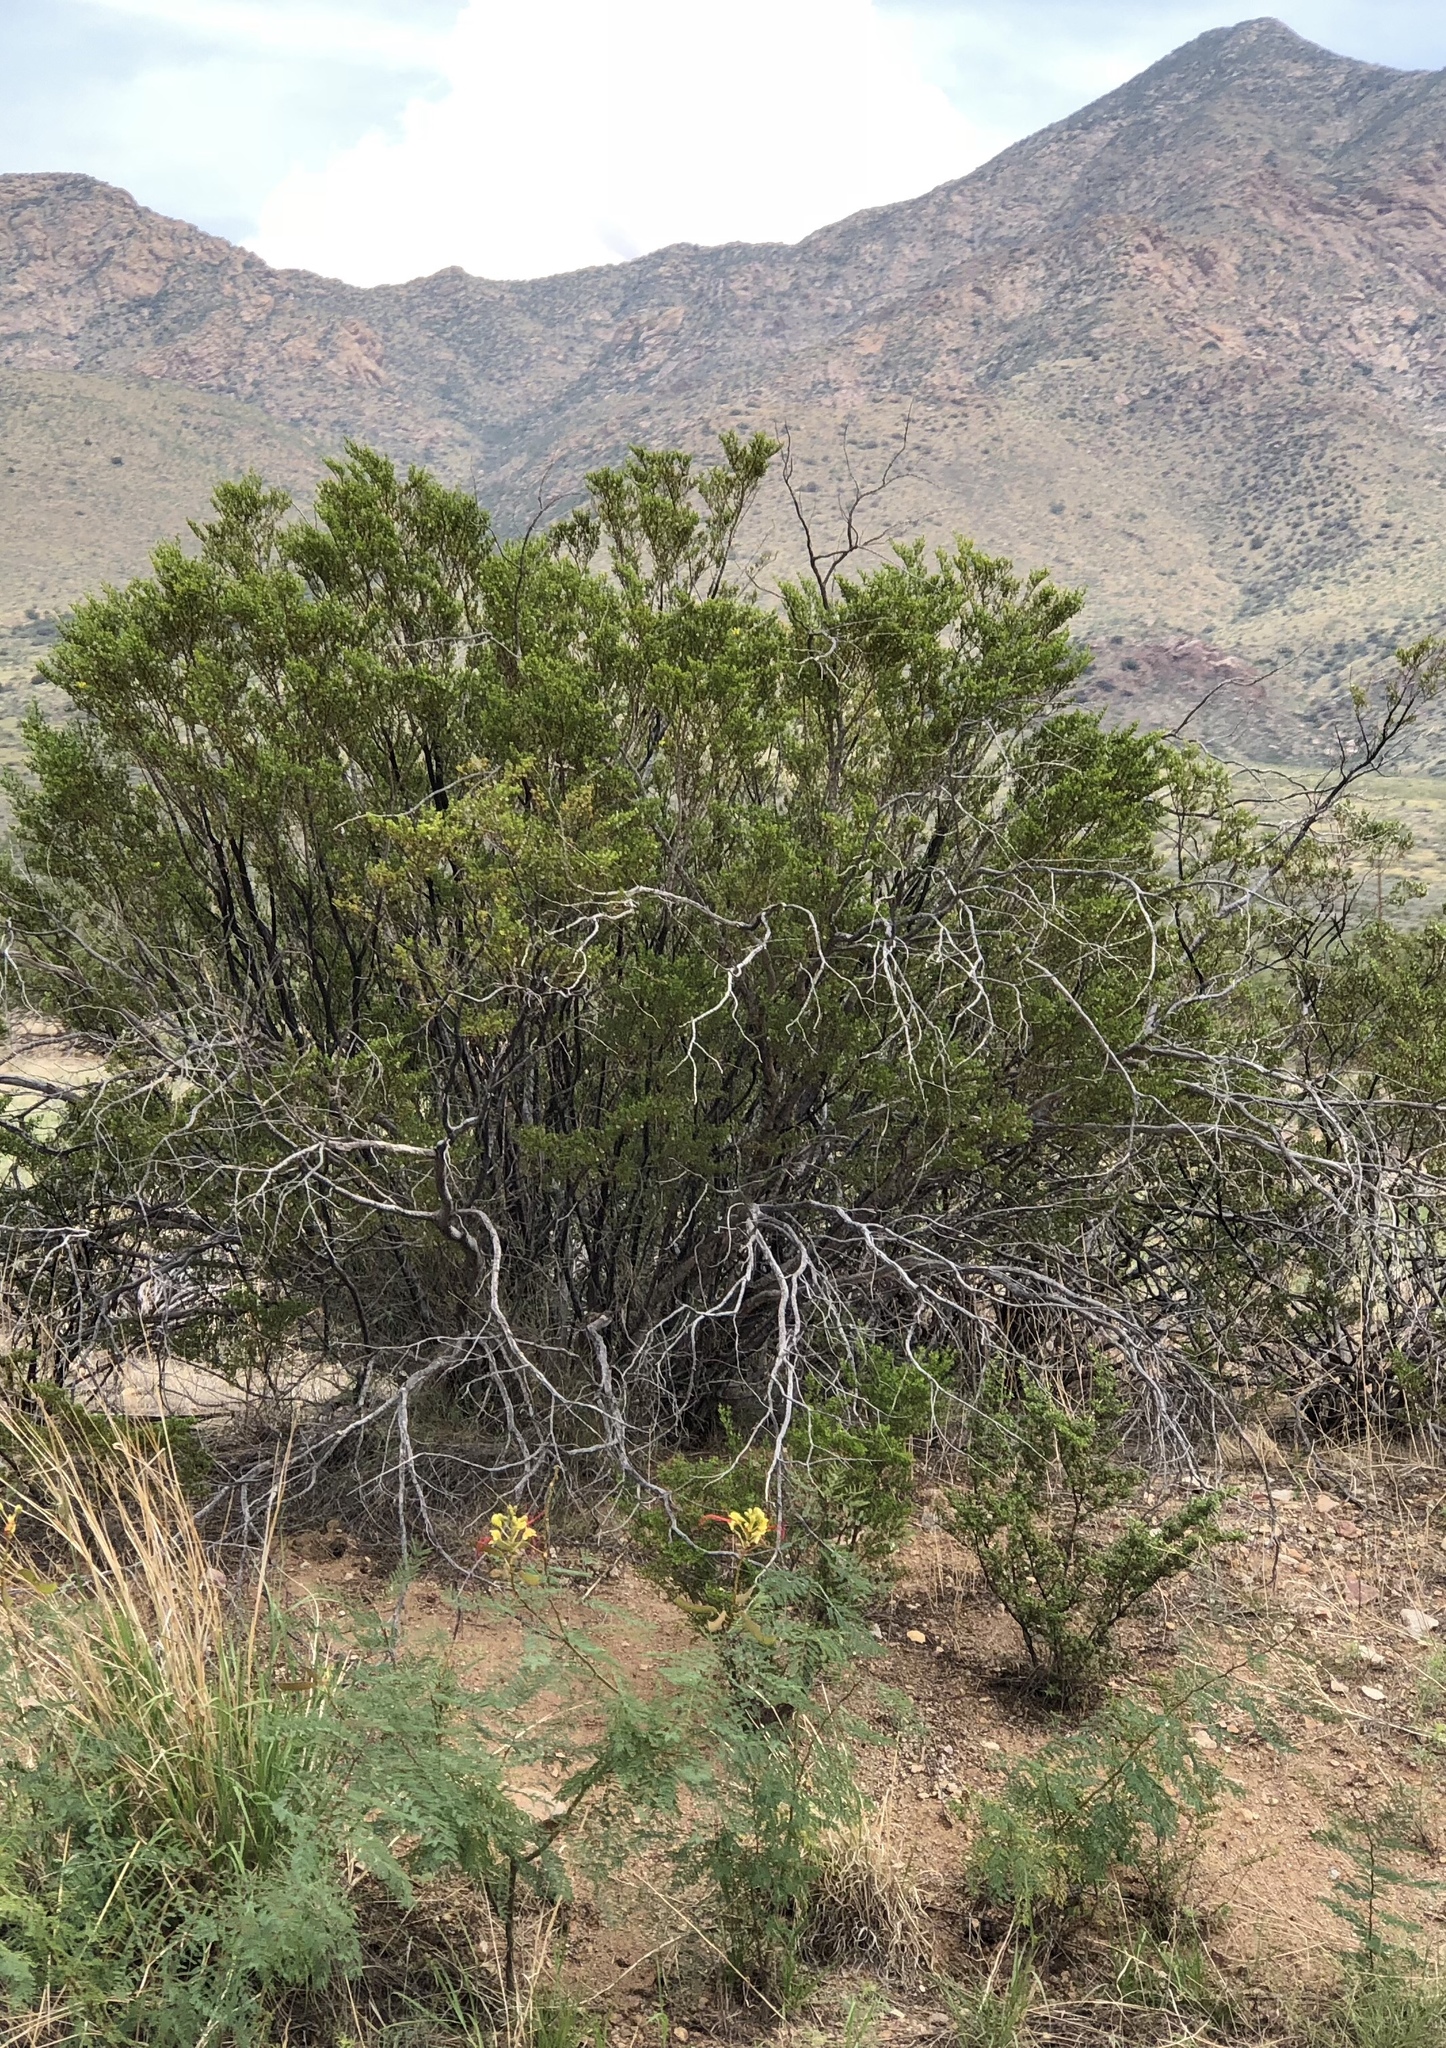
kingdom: Plantae
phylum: Tracheophyta
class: Magnoliopsida
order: Zygophyllales
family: Zygophyllaceae
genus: Larrea
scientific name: Larrea tridentata
